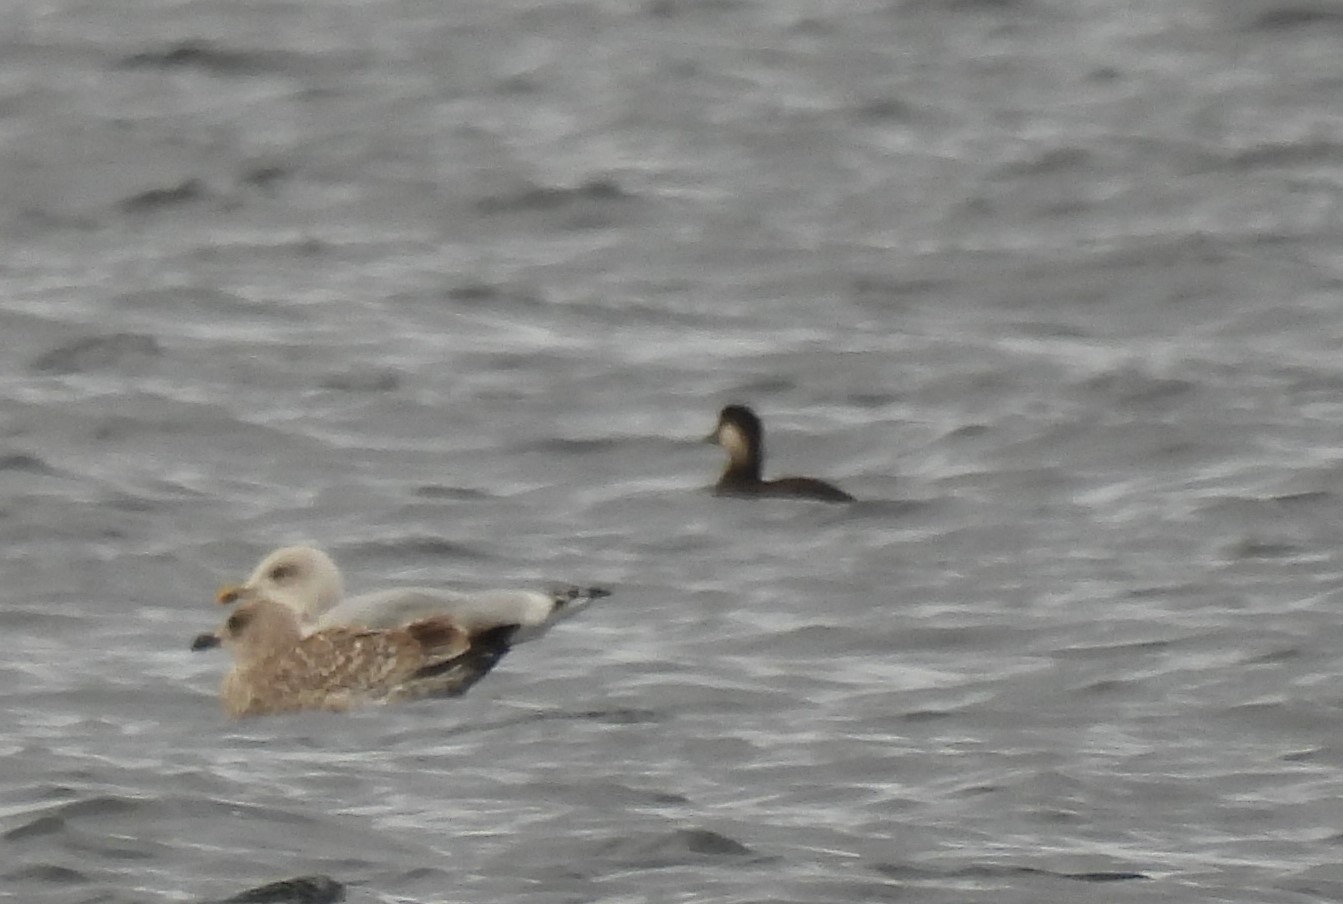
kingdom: Animalia
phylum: Chordata
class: Aves
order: Anseriformes
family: Anatidae
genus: Melanitta
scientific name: Melanitta nigra
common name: Common scoter
